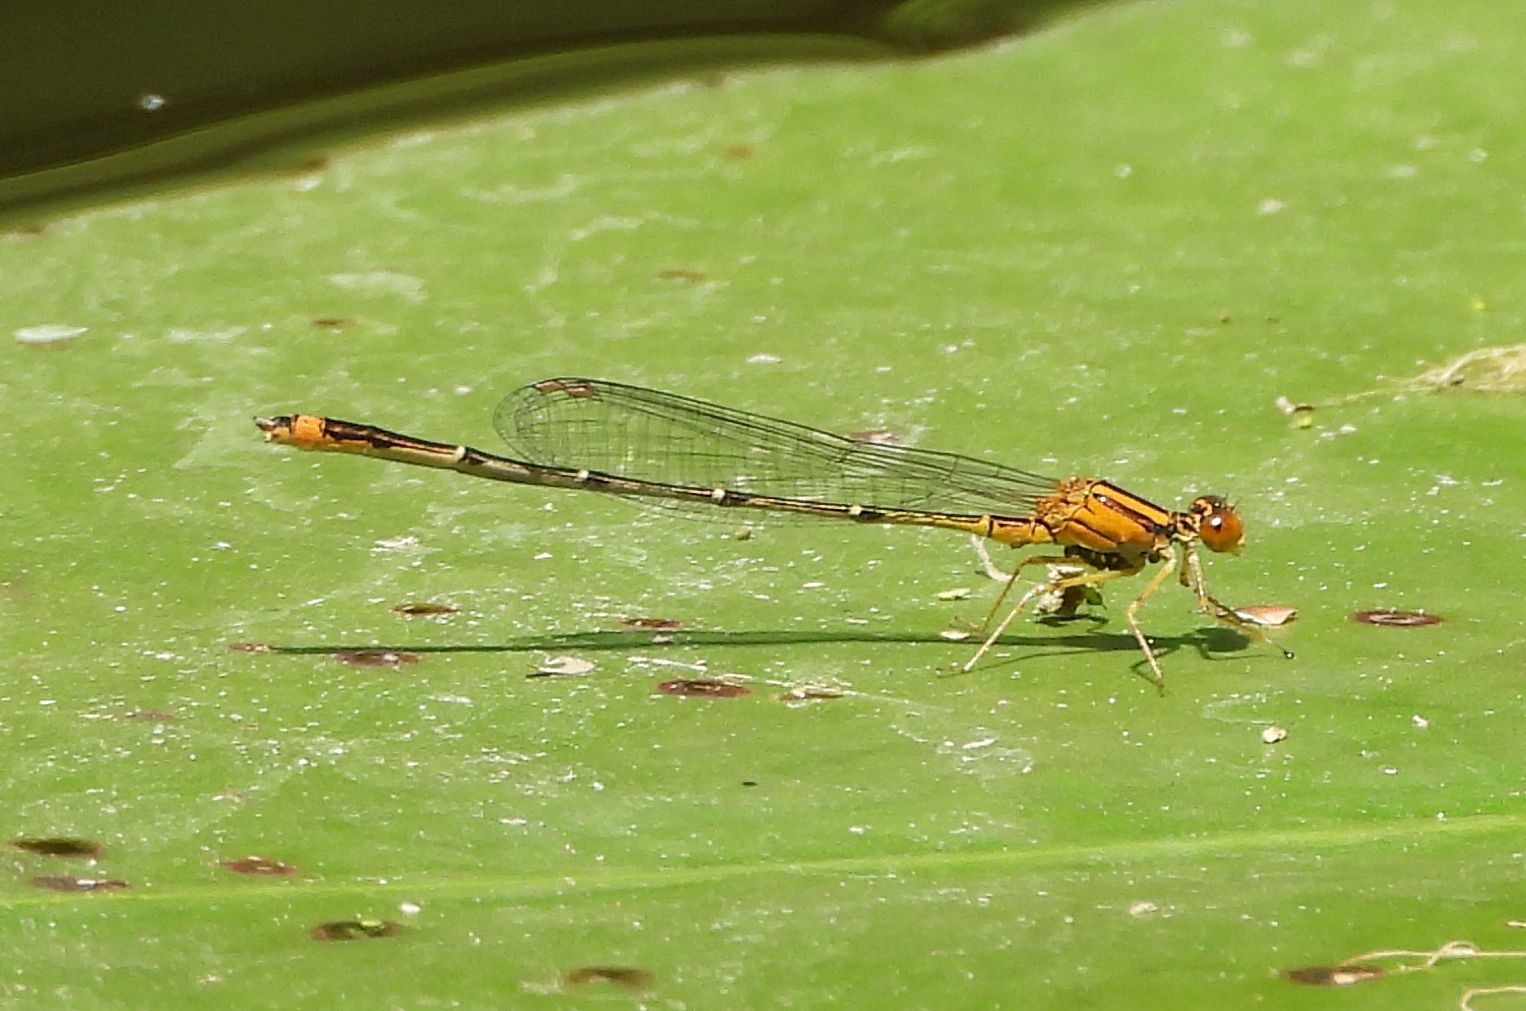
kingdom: Animalia
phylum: Arthropoda
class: Insecta
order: Odonata
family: Coenagrionidae
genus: Enallagma
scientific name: Enallagma signatum
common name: Orange bluet
